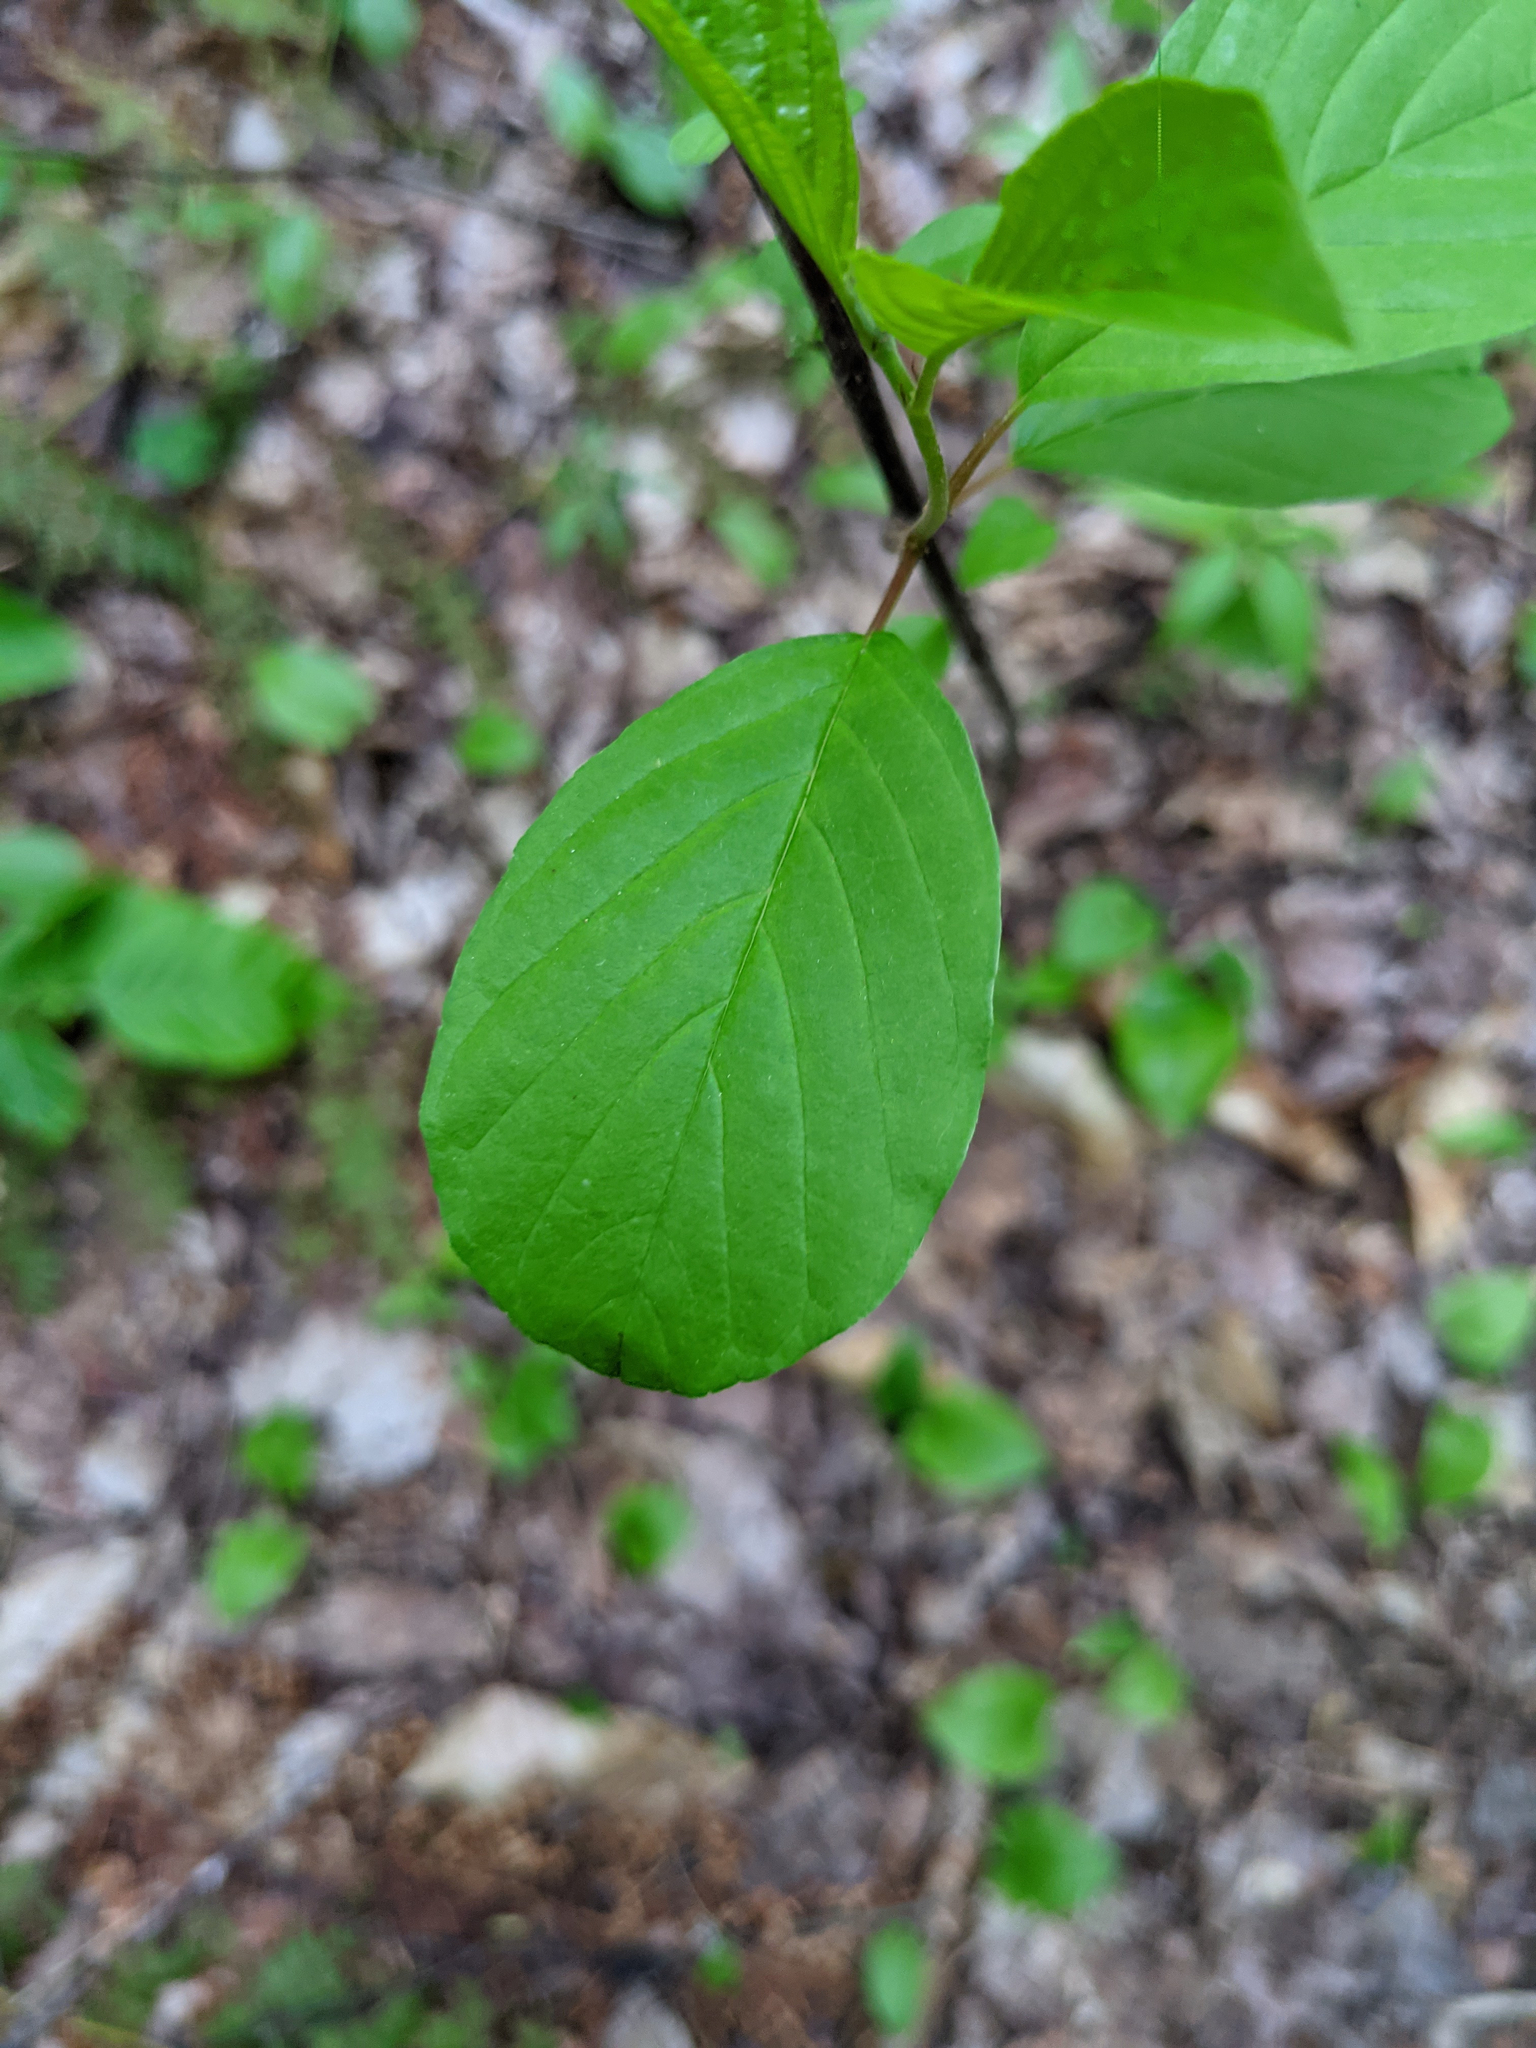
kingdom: Plantae
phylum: Tracheophyta
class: Magnoliopsida
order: Rosales
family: Rhamnaceae
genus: Frangula
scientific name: Frangula alnus
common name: Alder buckthorn
